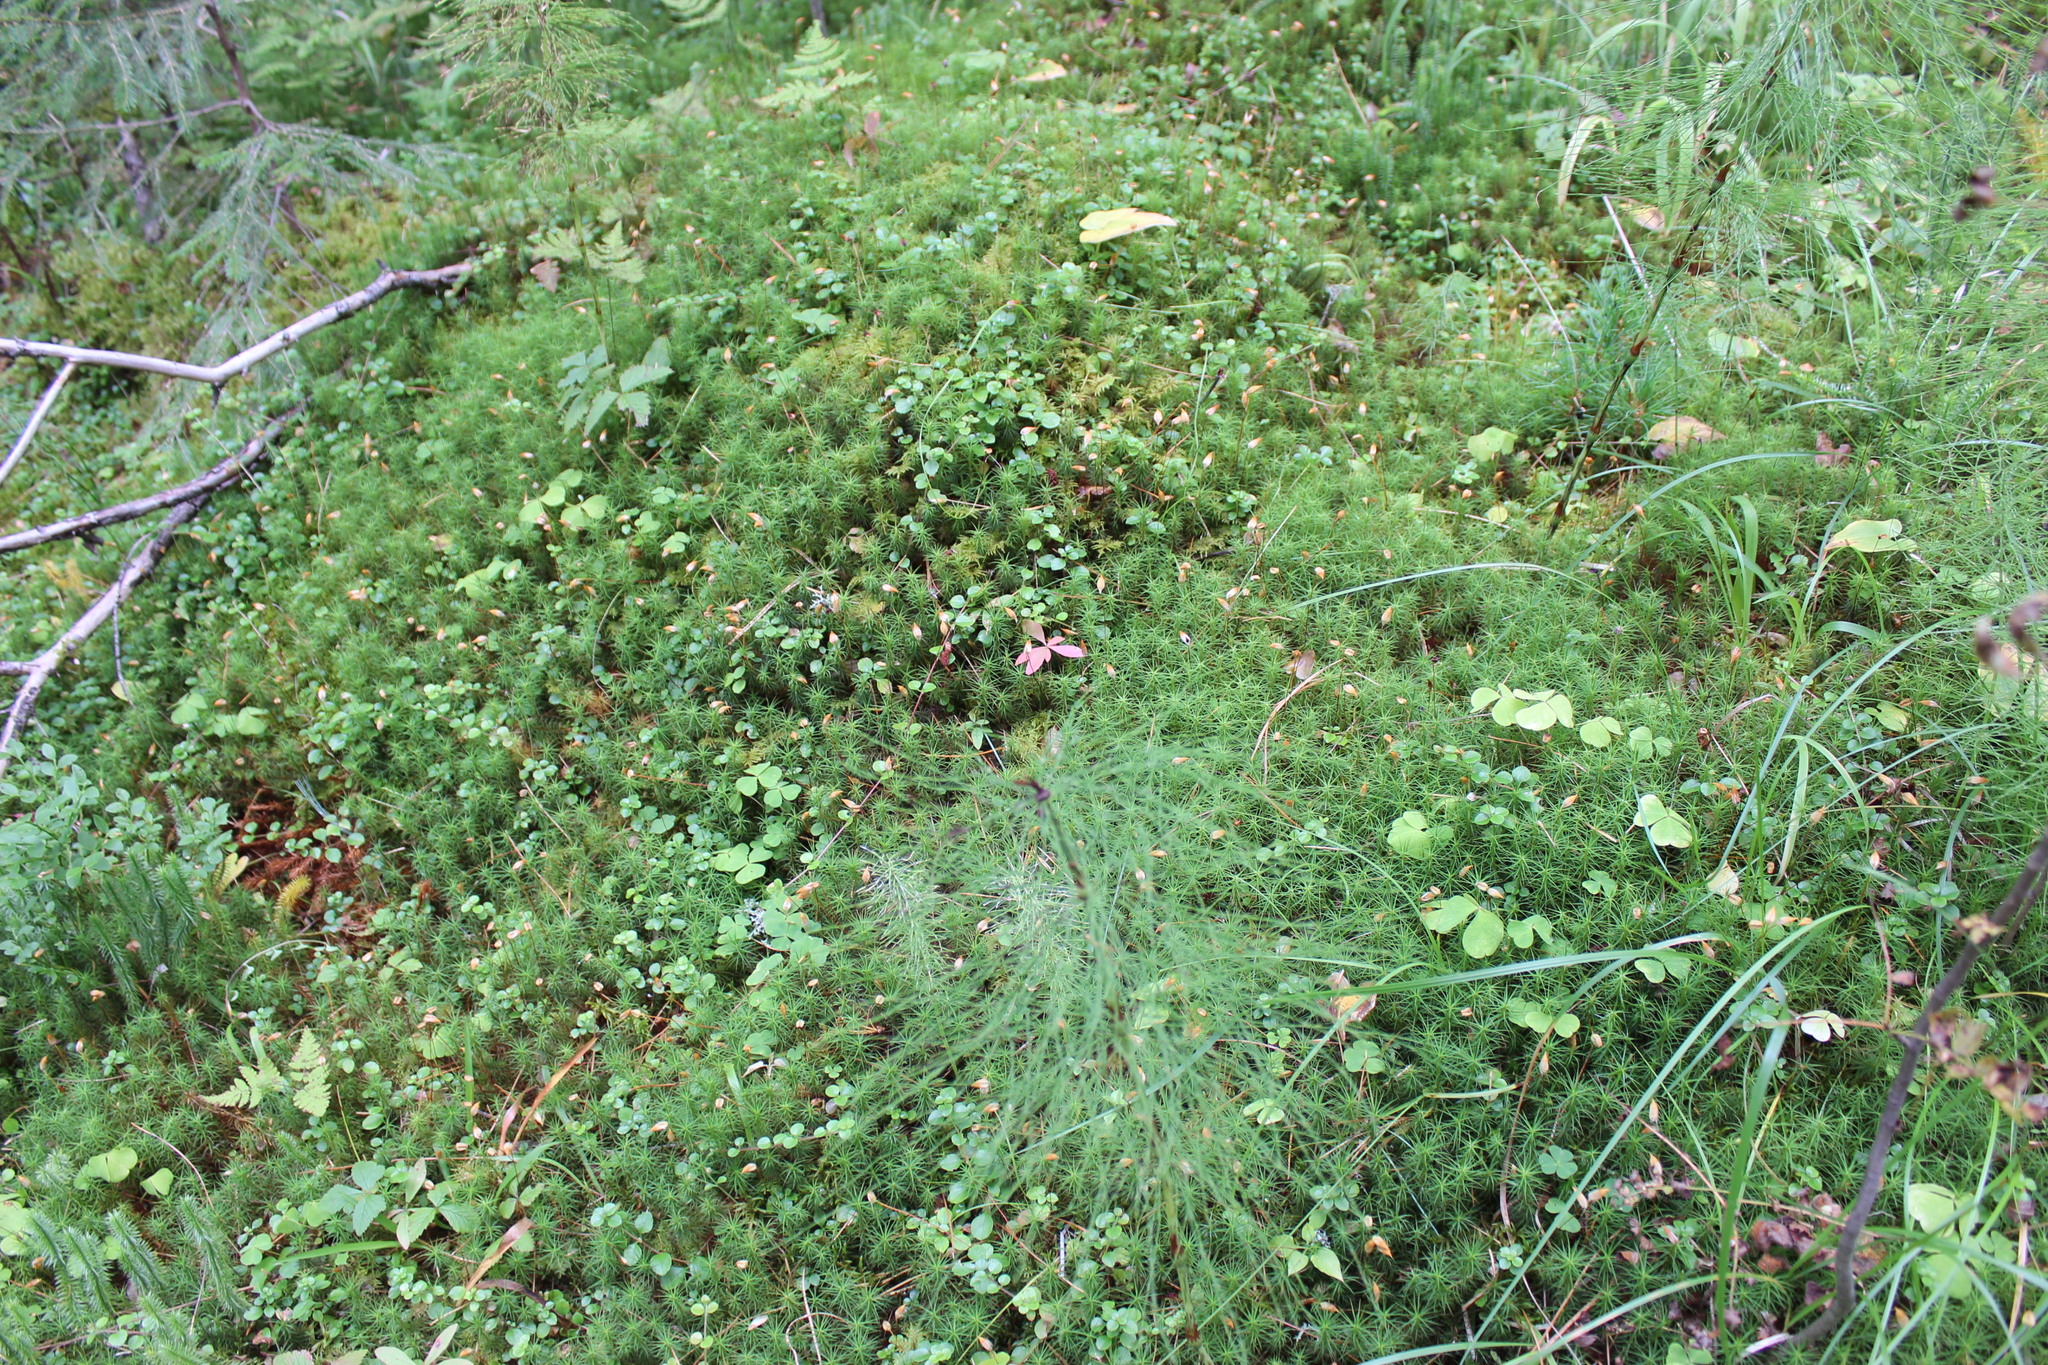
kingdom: Plantae
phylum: Tracheophyta
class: Polypodiopsida
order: Equisetales
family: Equisetaceae
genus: Equisetum
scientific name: Equisetum sylvaticum
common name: Wood horsetail
